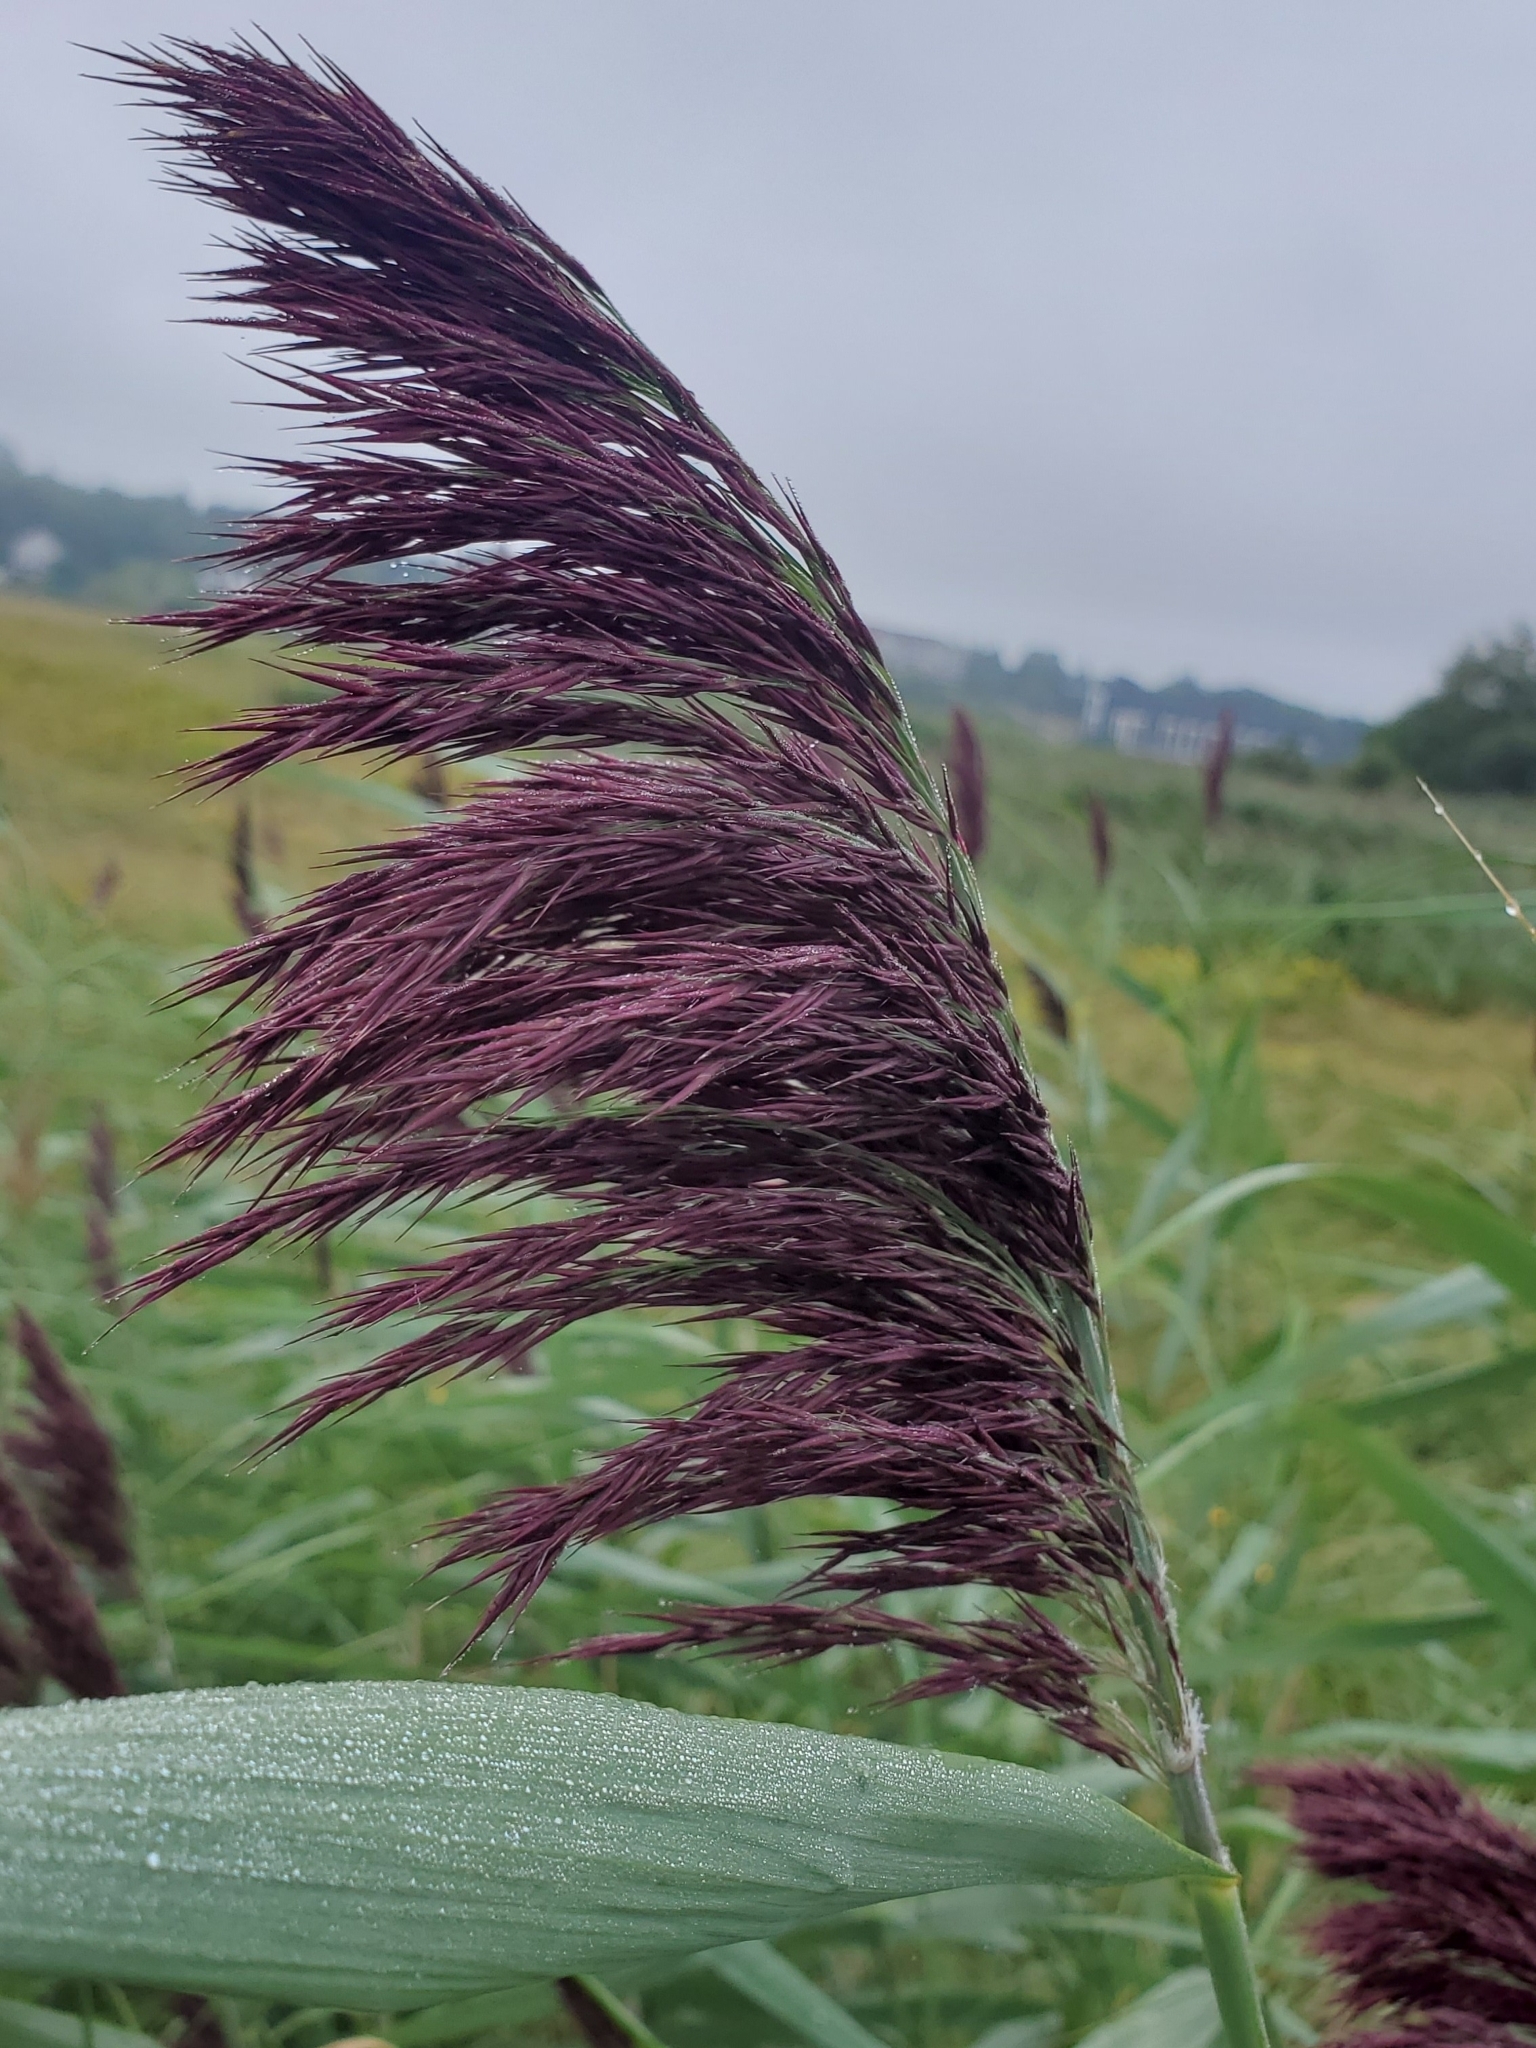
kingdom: Plantae
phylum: Tracheophyta
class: Liliopsida
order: Poales
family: Poaceae
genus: Phragmites
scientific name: Phragmites australis
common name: Common reed
